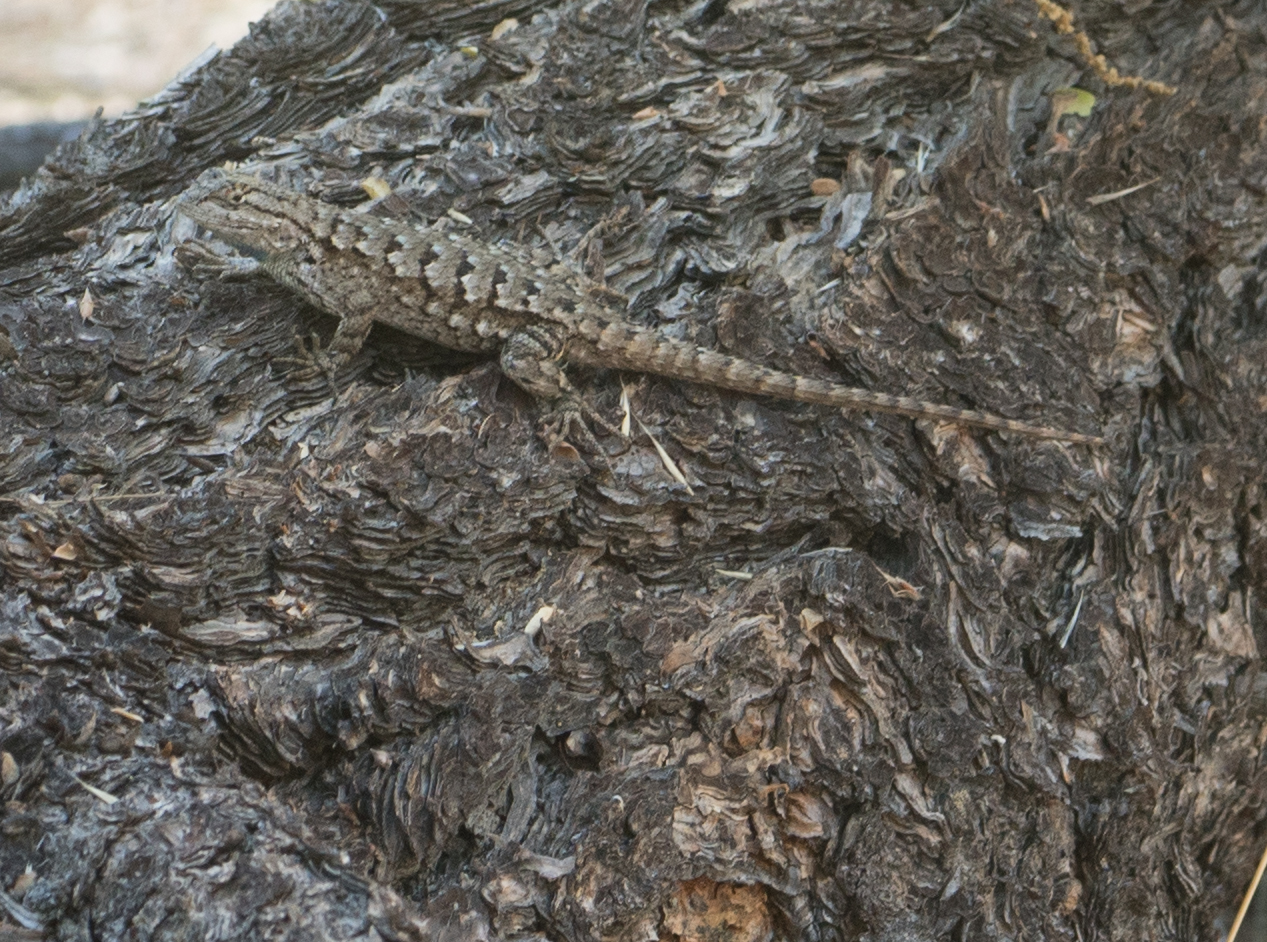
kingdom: Animalia
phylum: Chordata
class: Squamata
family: Phrynosomatidae
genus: Sceloporus
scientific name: Sceloporus occidentalis
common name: Western fence lizard
